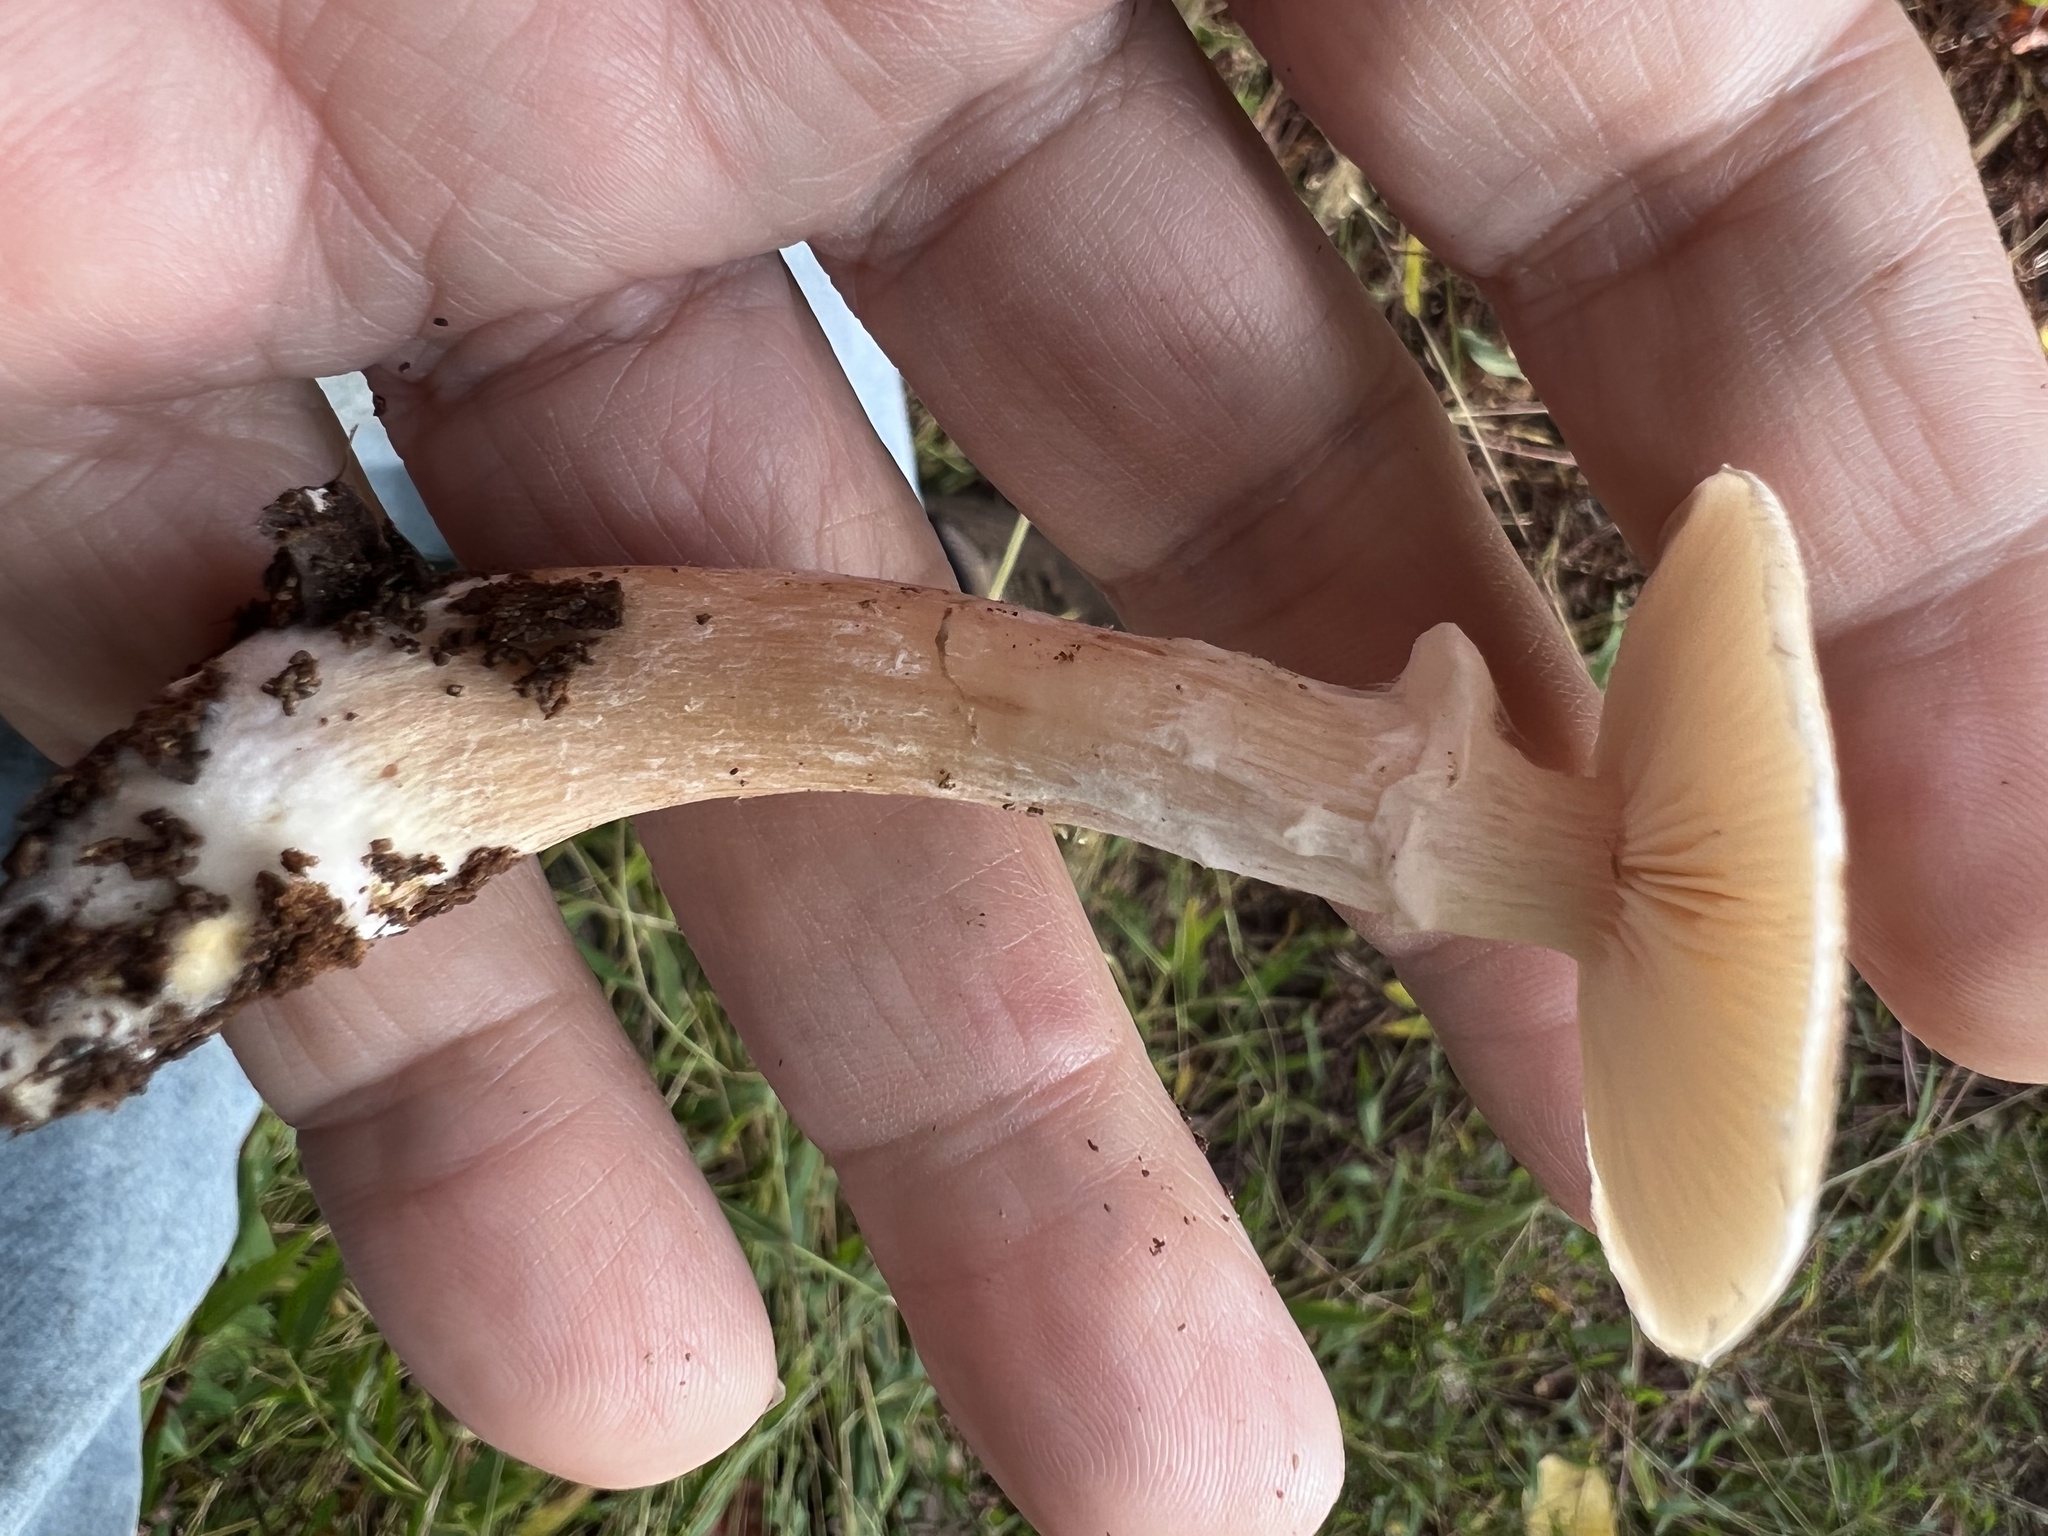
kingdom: Fungi
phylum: Basidiomycota
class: Agaricomycetes
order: Agaricales
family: Physalacriaceae
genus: Armillaria
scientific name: Armillaria gallica
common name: Bulbous honey fungus
